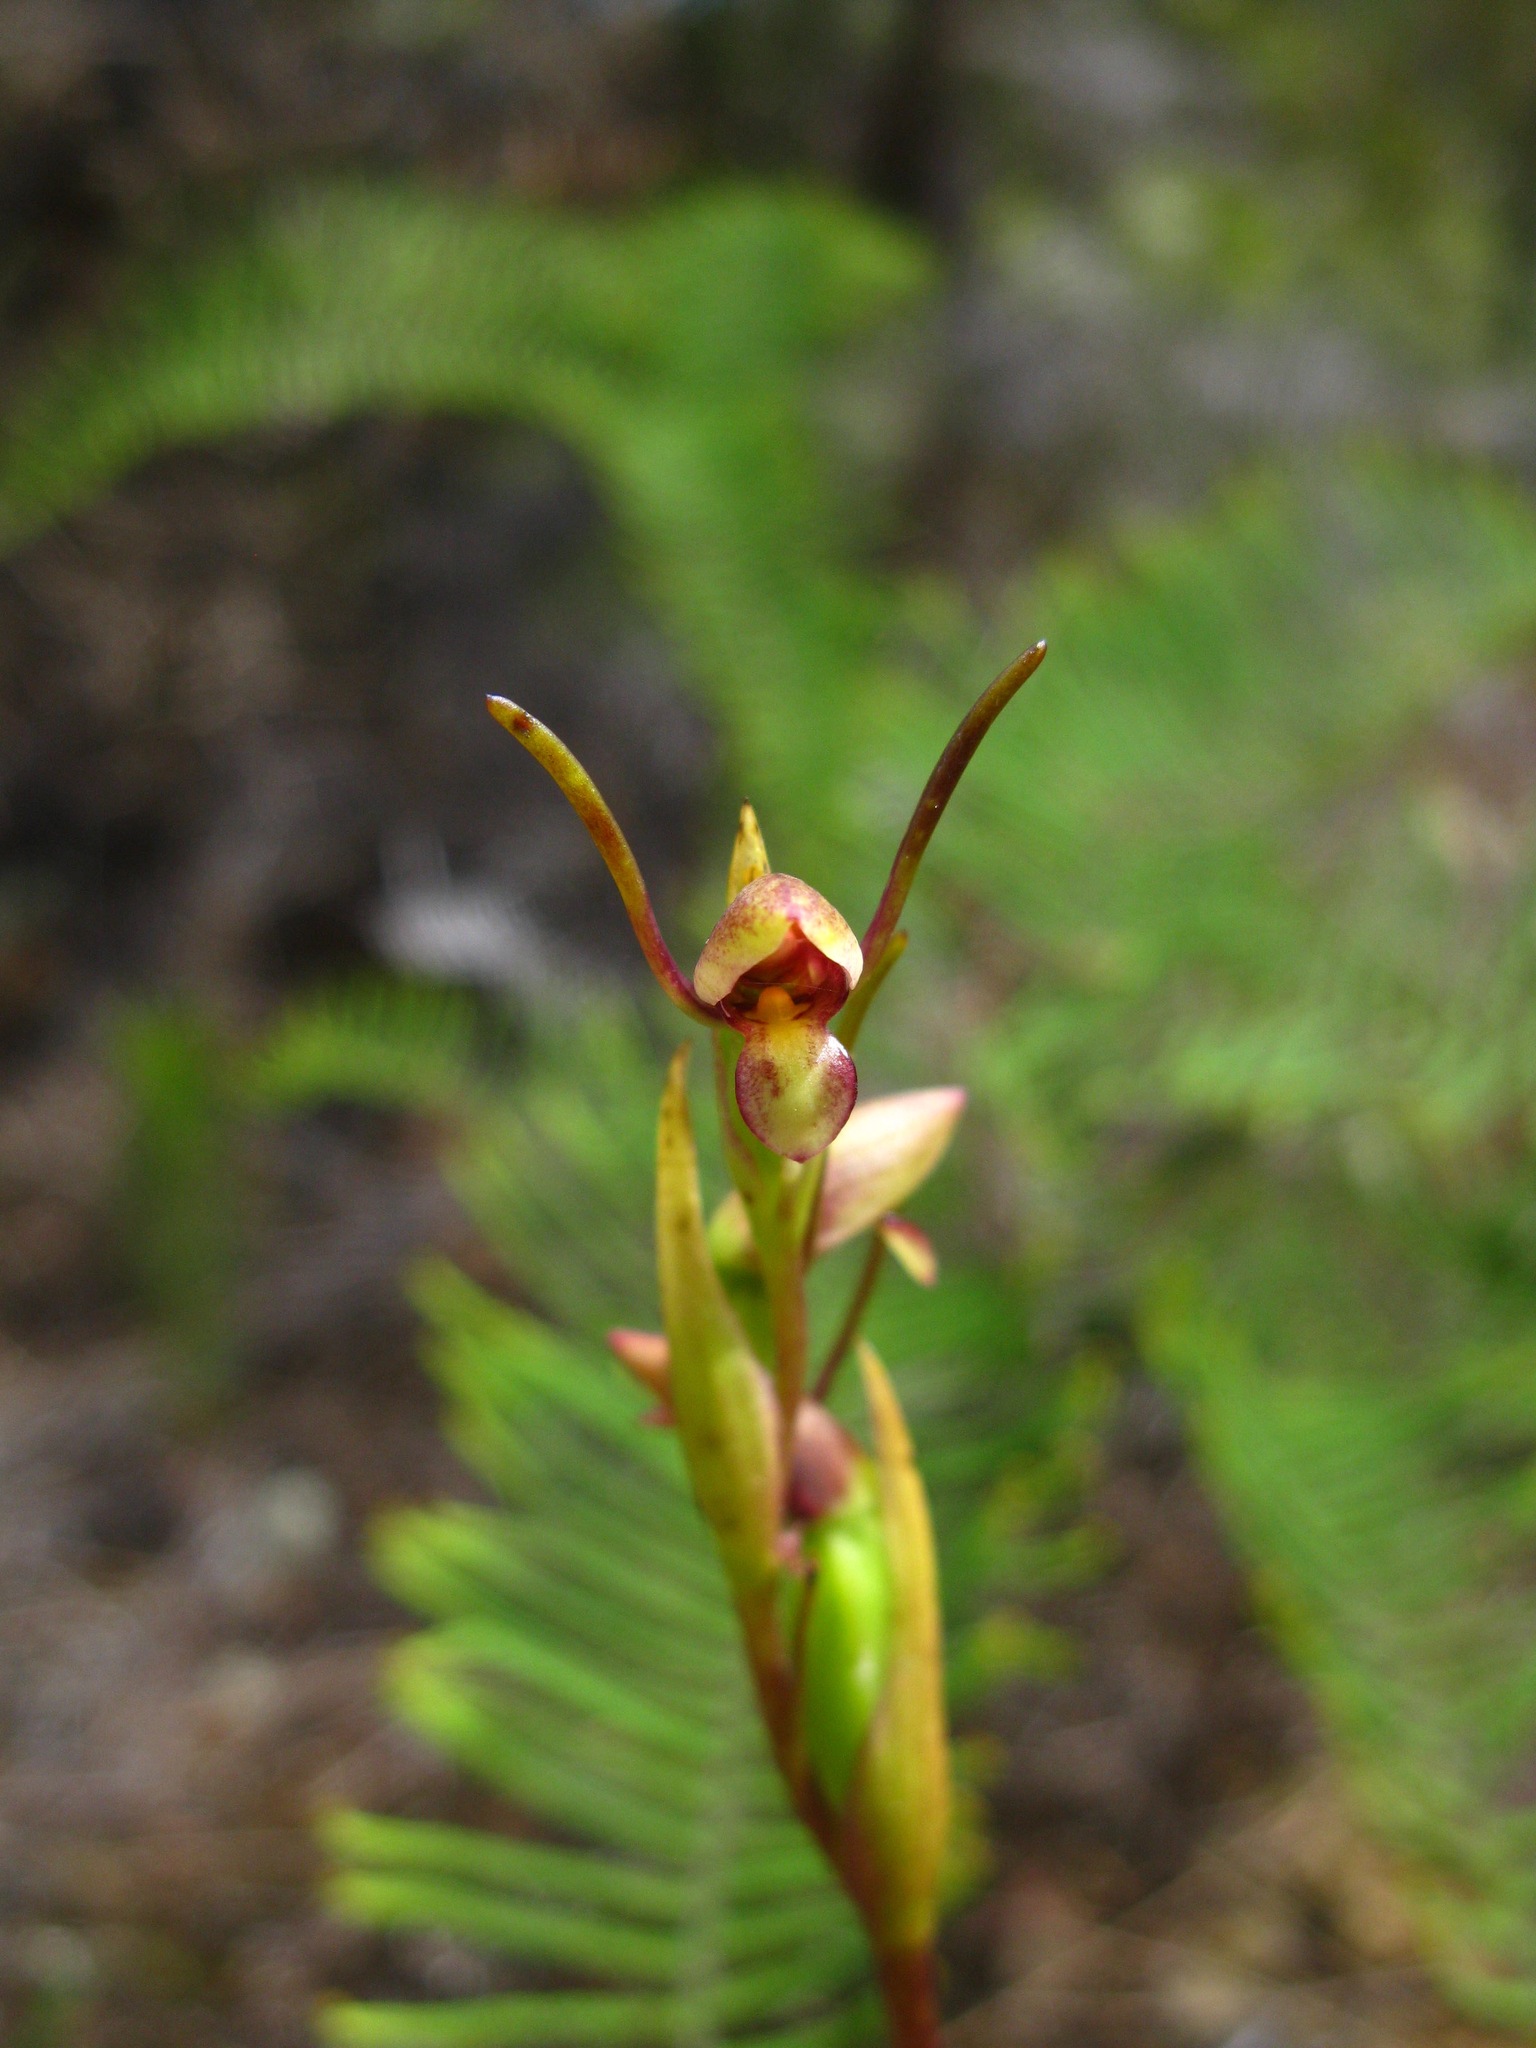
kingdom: Plantae
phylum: Tracheophyta
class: Liliopsida
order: Asparagales
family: Orchidaceae
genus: Orthoceras
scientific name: Orthoceras novae-zeelandiae
